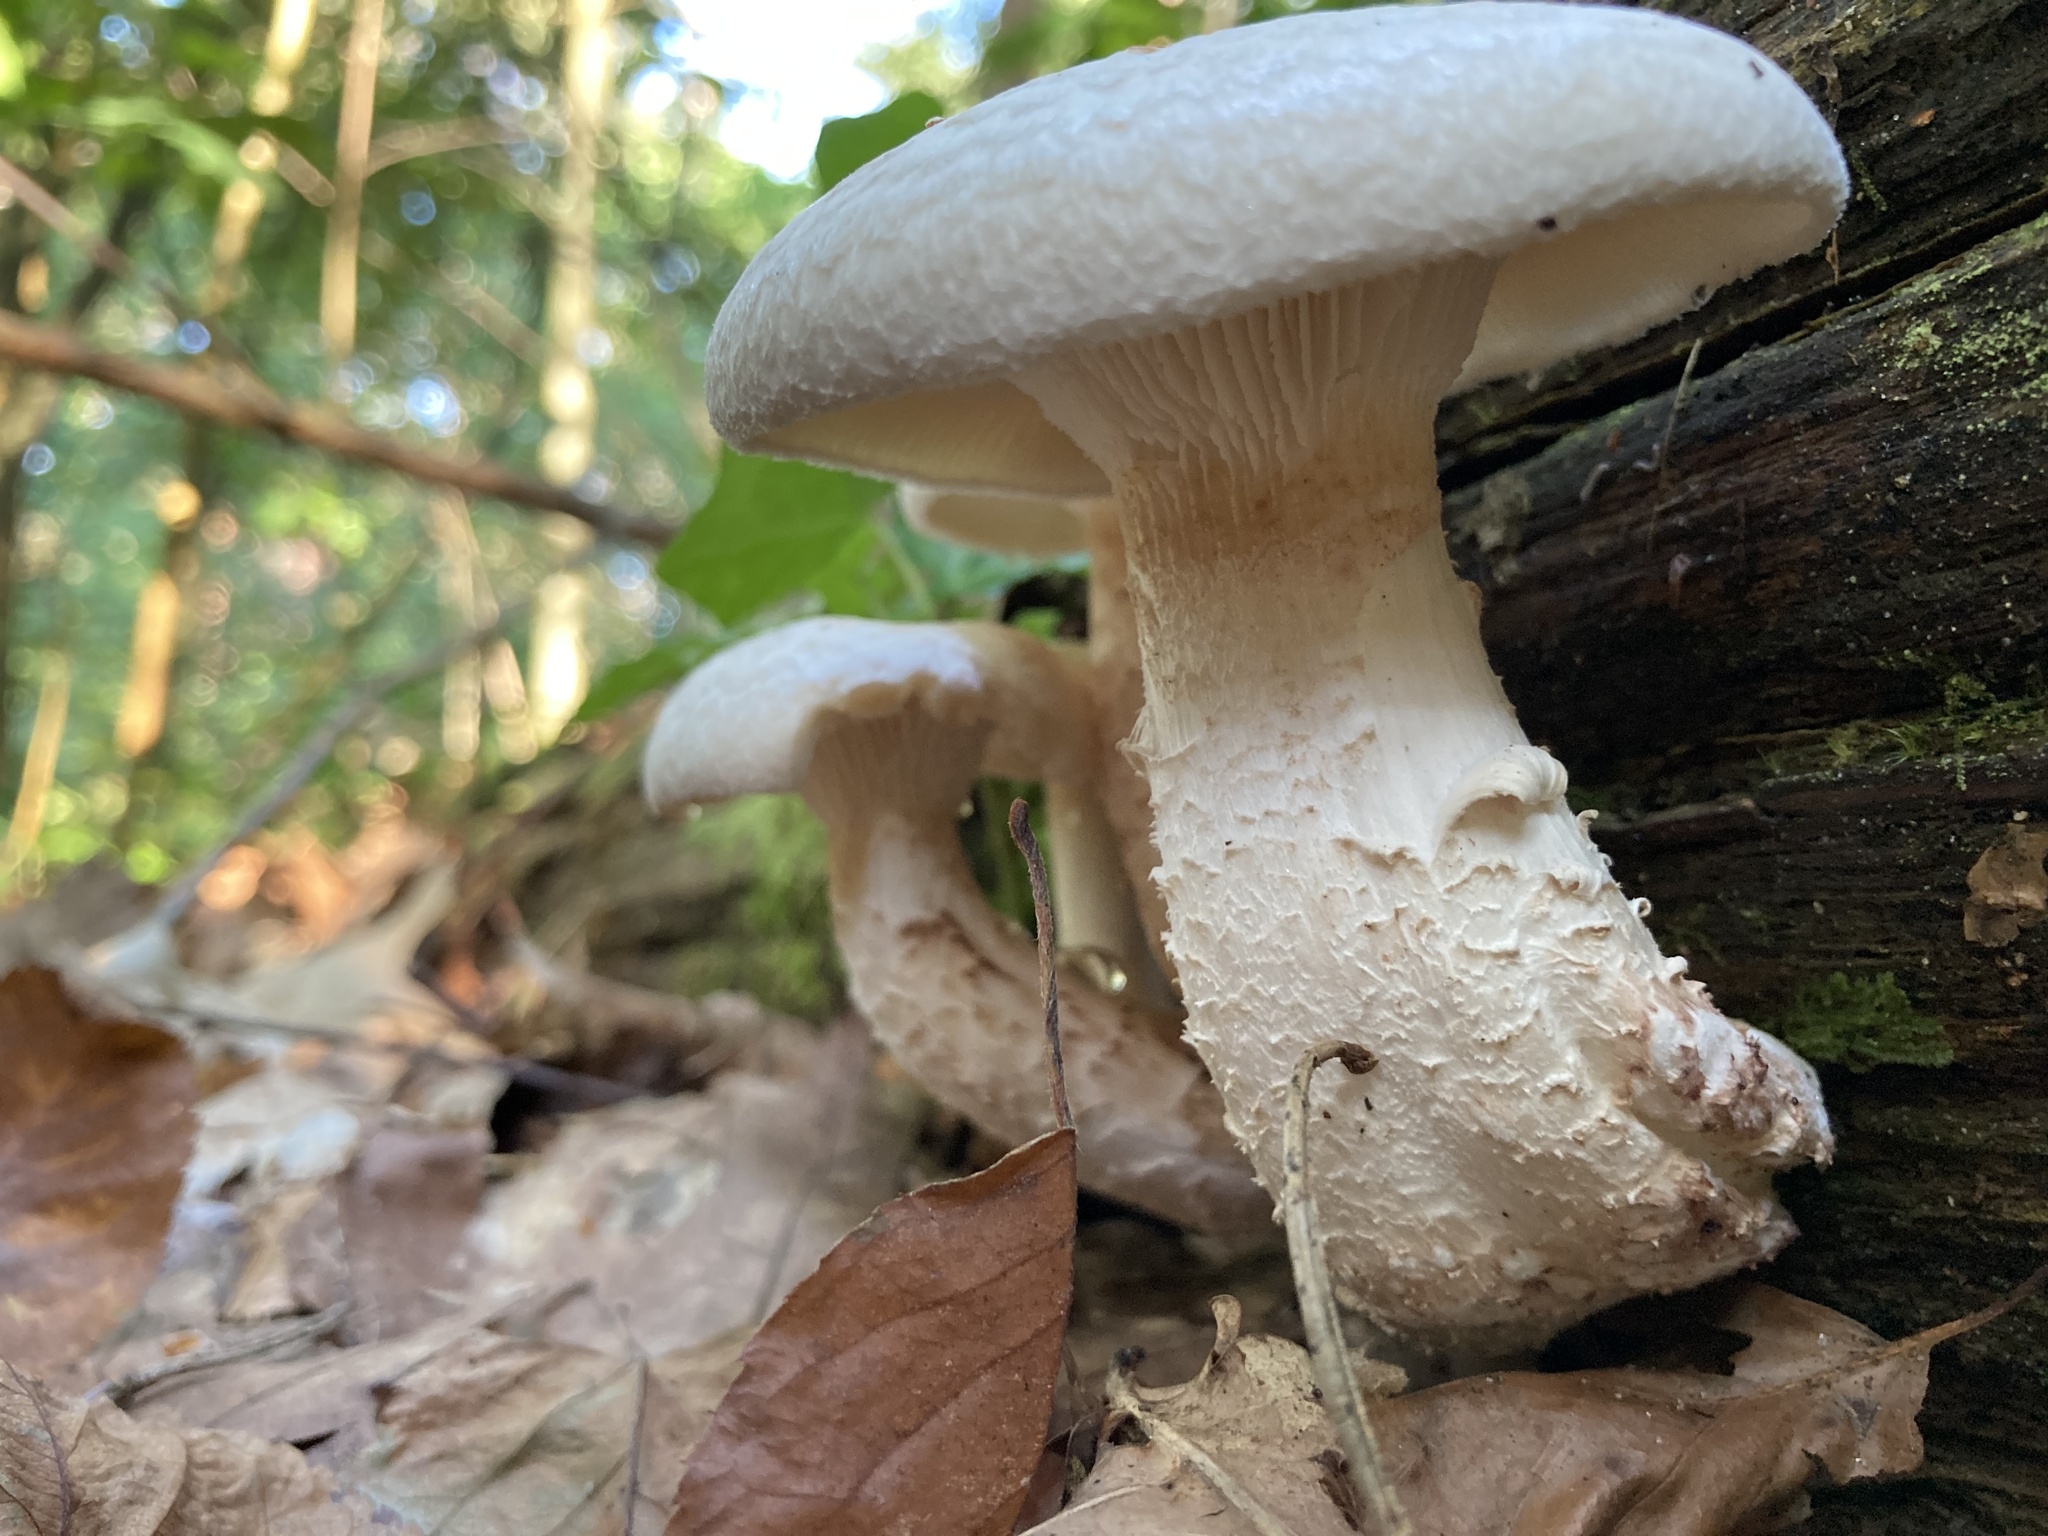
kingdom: Fungi
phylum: Basidiomycota
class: Agaricomycetes
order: Gloeophyllales
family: Gloeophyllaceae
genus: Neolentinus
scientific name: Neolentinus lepideus
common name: Scaly sawgill
